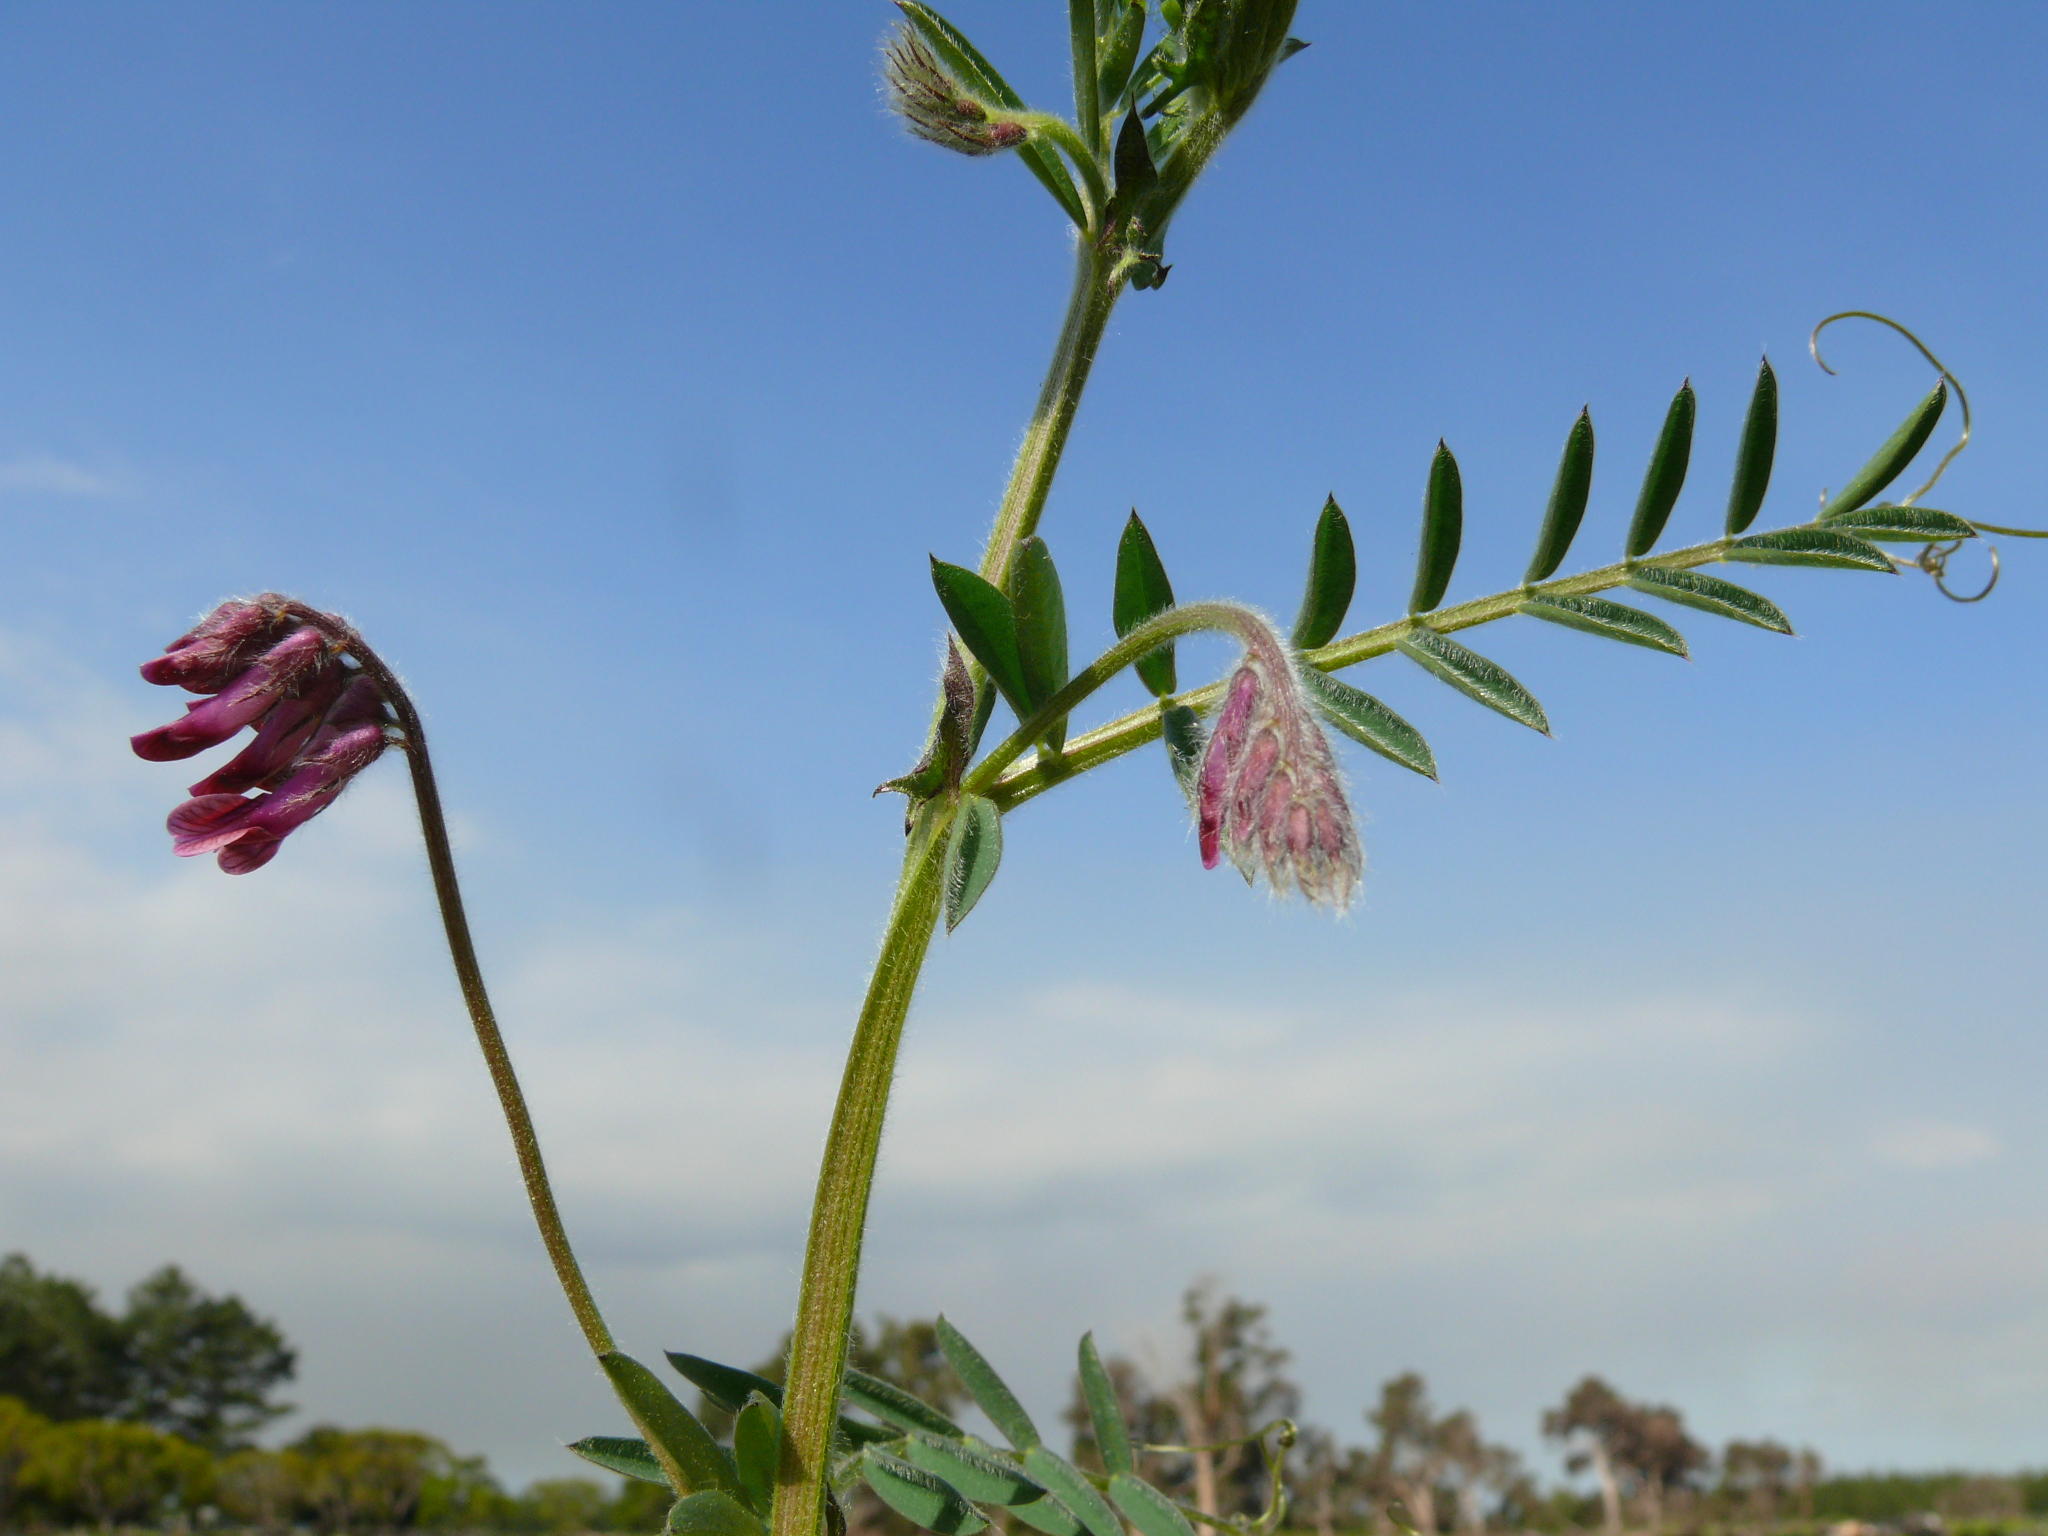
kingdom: Plantae
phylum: Tracheophyta
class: Magnoliopsida
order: Fabales
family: Fabaceae
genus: Vicia
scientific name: Vicia benghalensis
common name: Purple vetch
